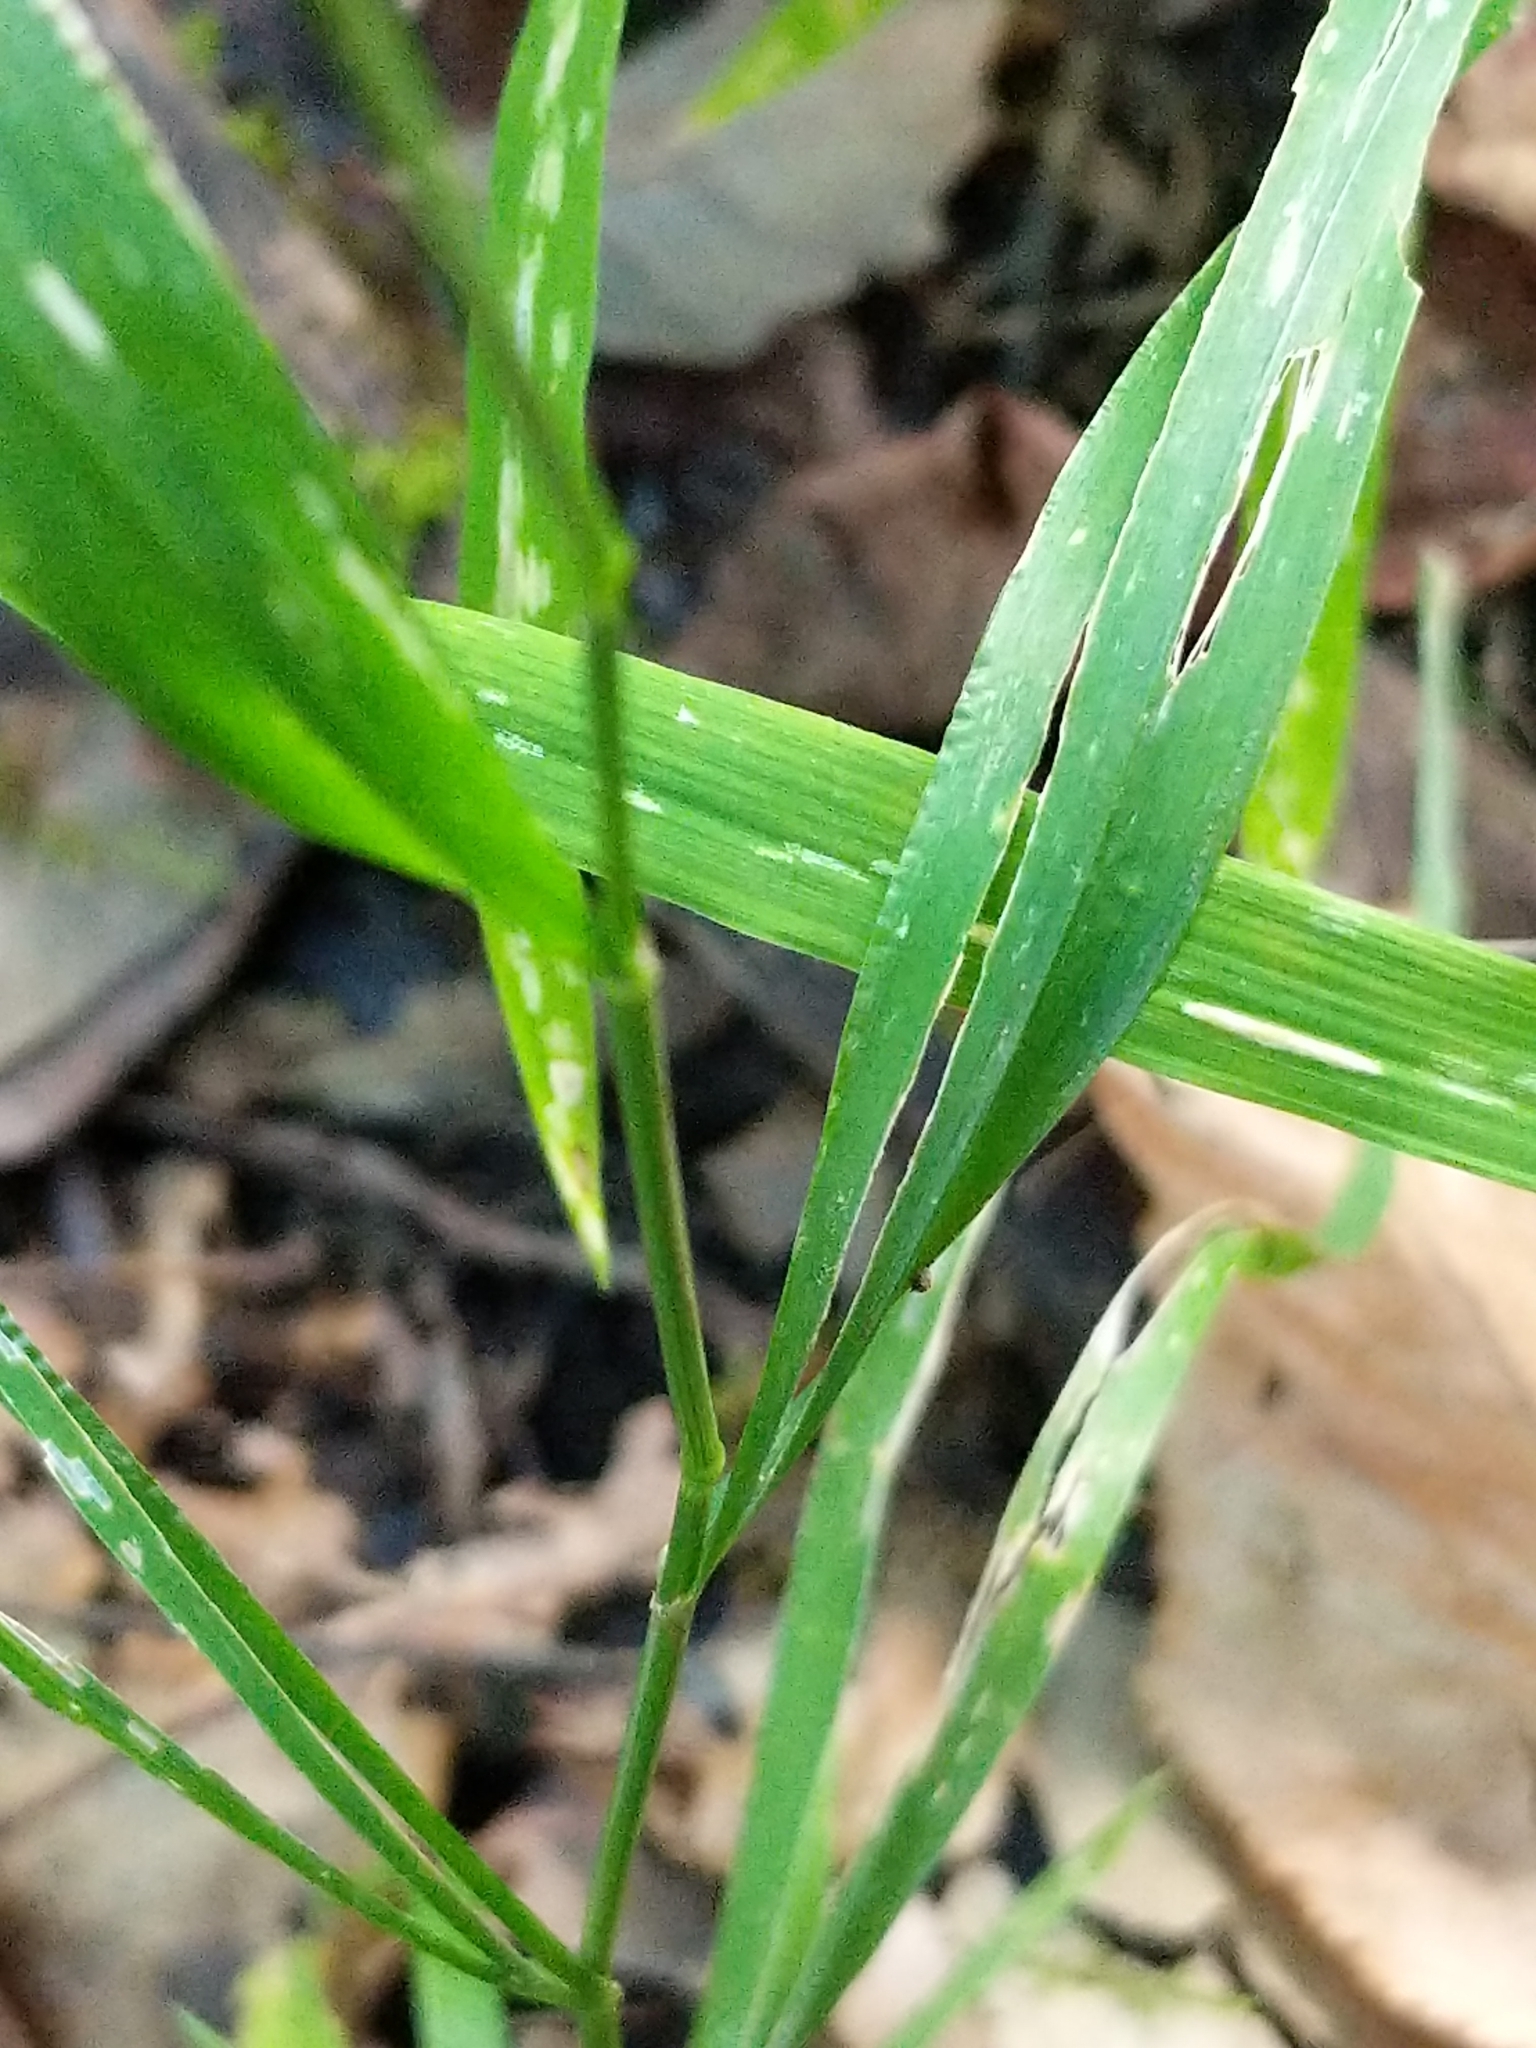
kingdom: Plantae
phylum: Tracheophyta
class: Liliopsida
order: Poales
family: Poaceae
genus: Cinna
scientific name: Cinna arundinacea
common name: Stout woodreed
